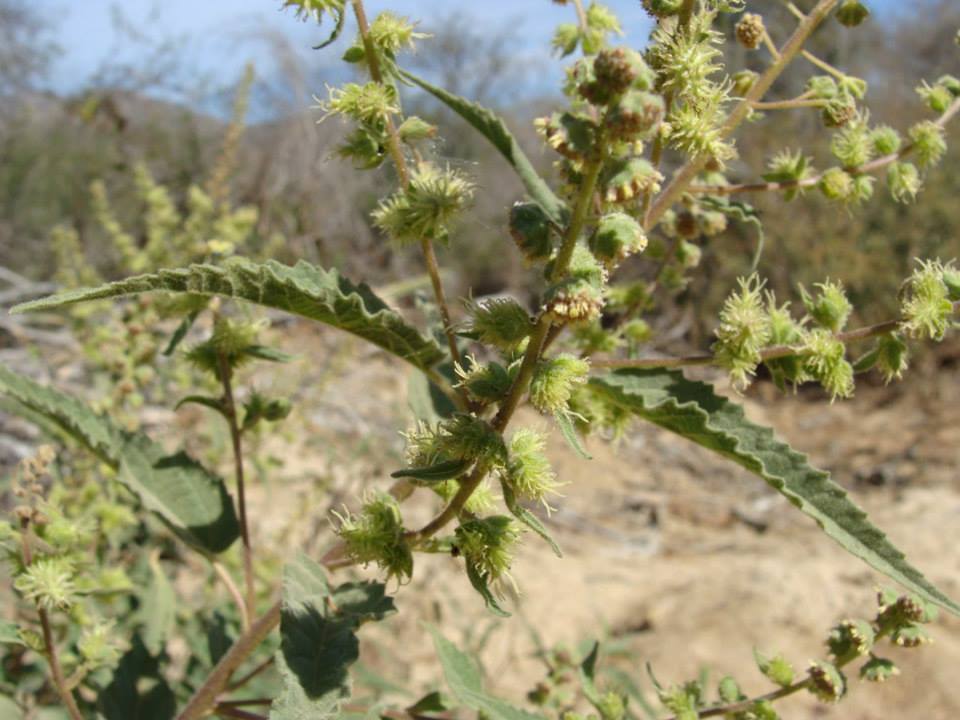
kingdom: Plantae
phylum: Tracheophyta
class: Magnoliopsida
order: Asterales
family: Asteraceae
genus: Ambrosia
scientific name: Ambrosia ambrosioides
